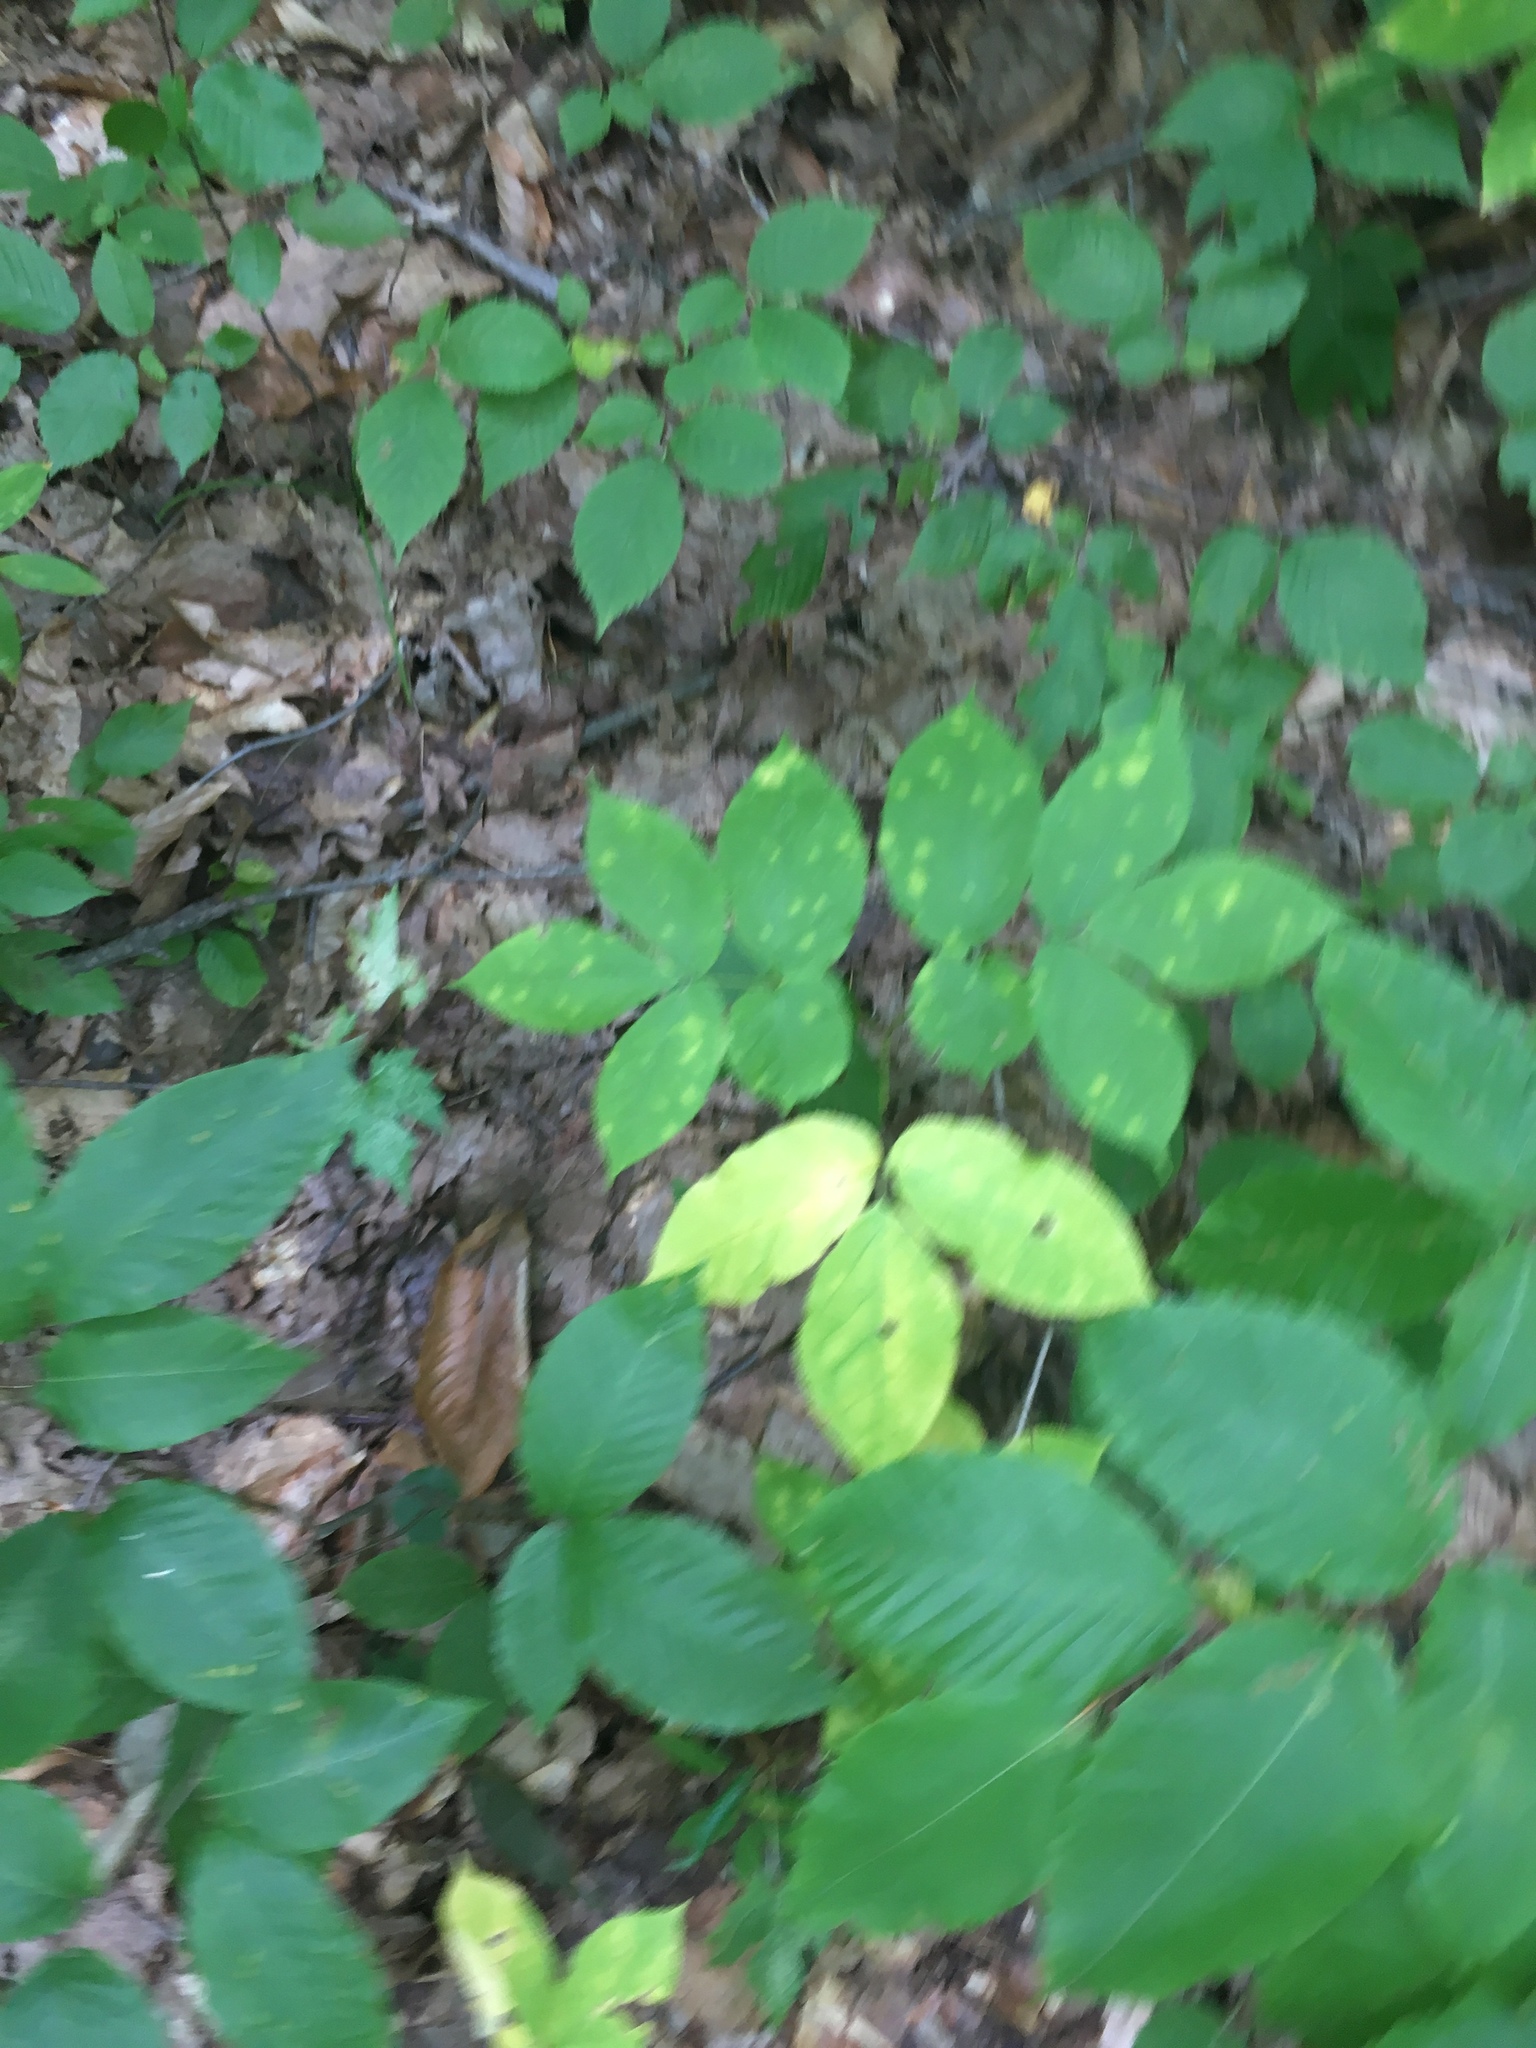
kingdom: Plantae
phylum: Tracheophyta
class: Magnoliopsida
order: Apiales
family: Araliaceae
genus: Aralia
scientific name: Aralia nudicaulis
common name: Wild sarsaparilla
